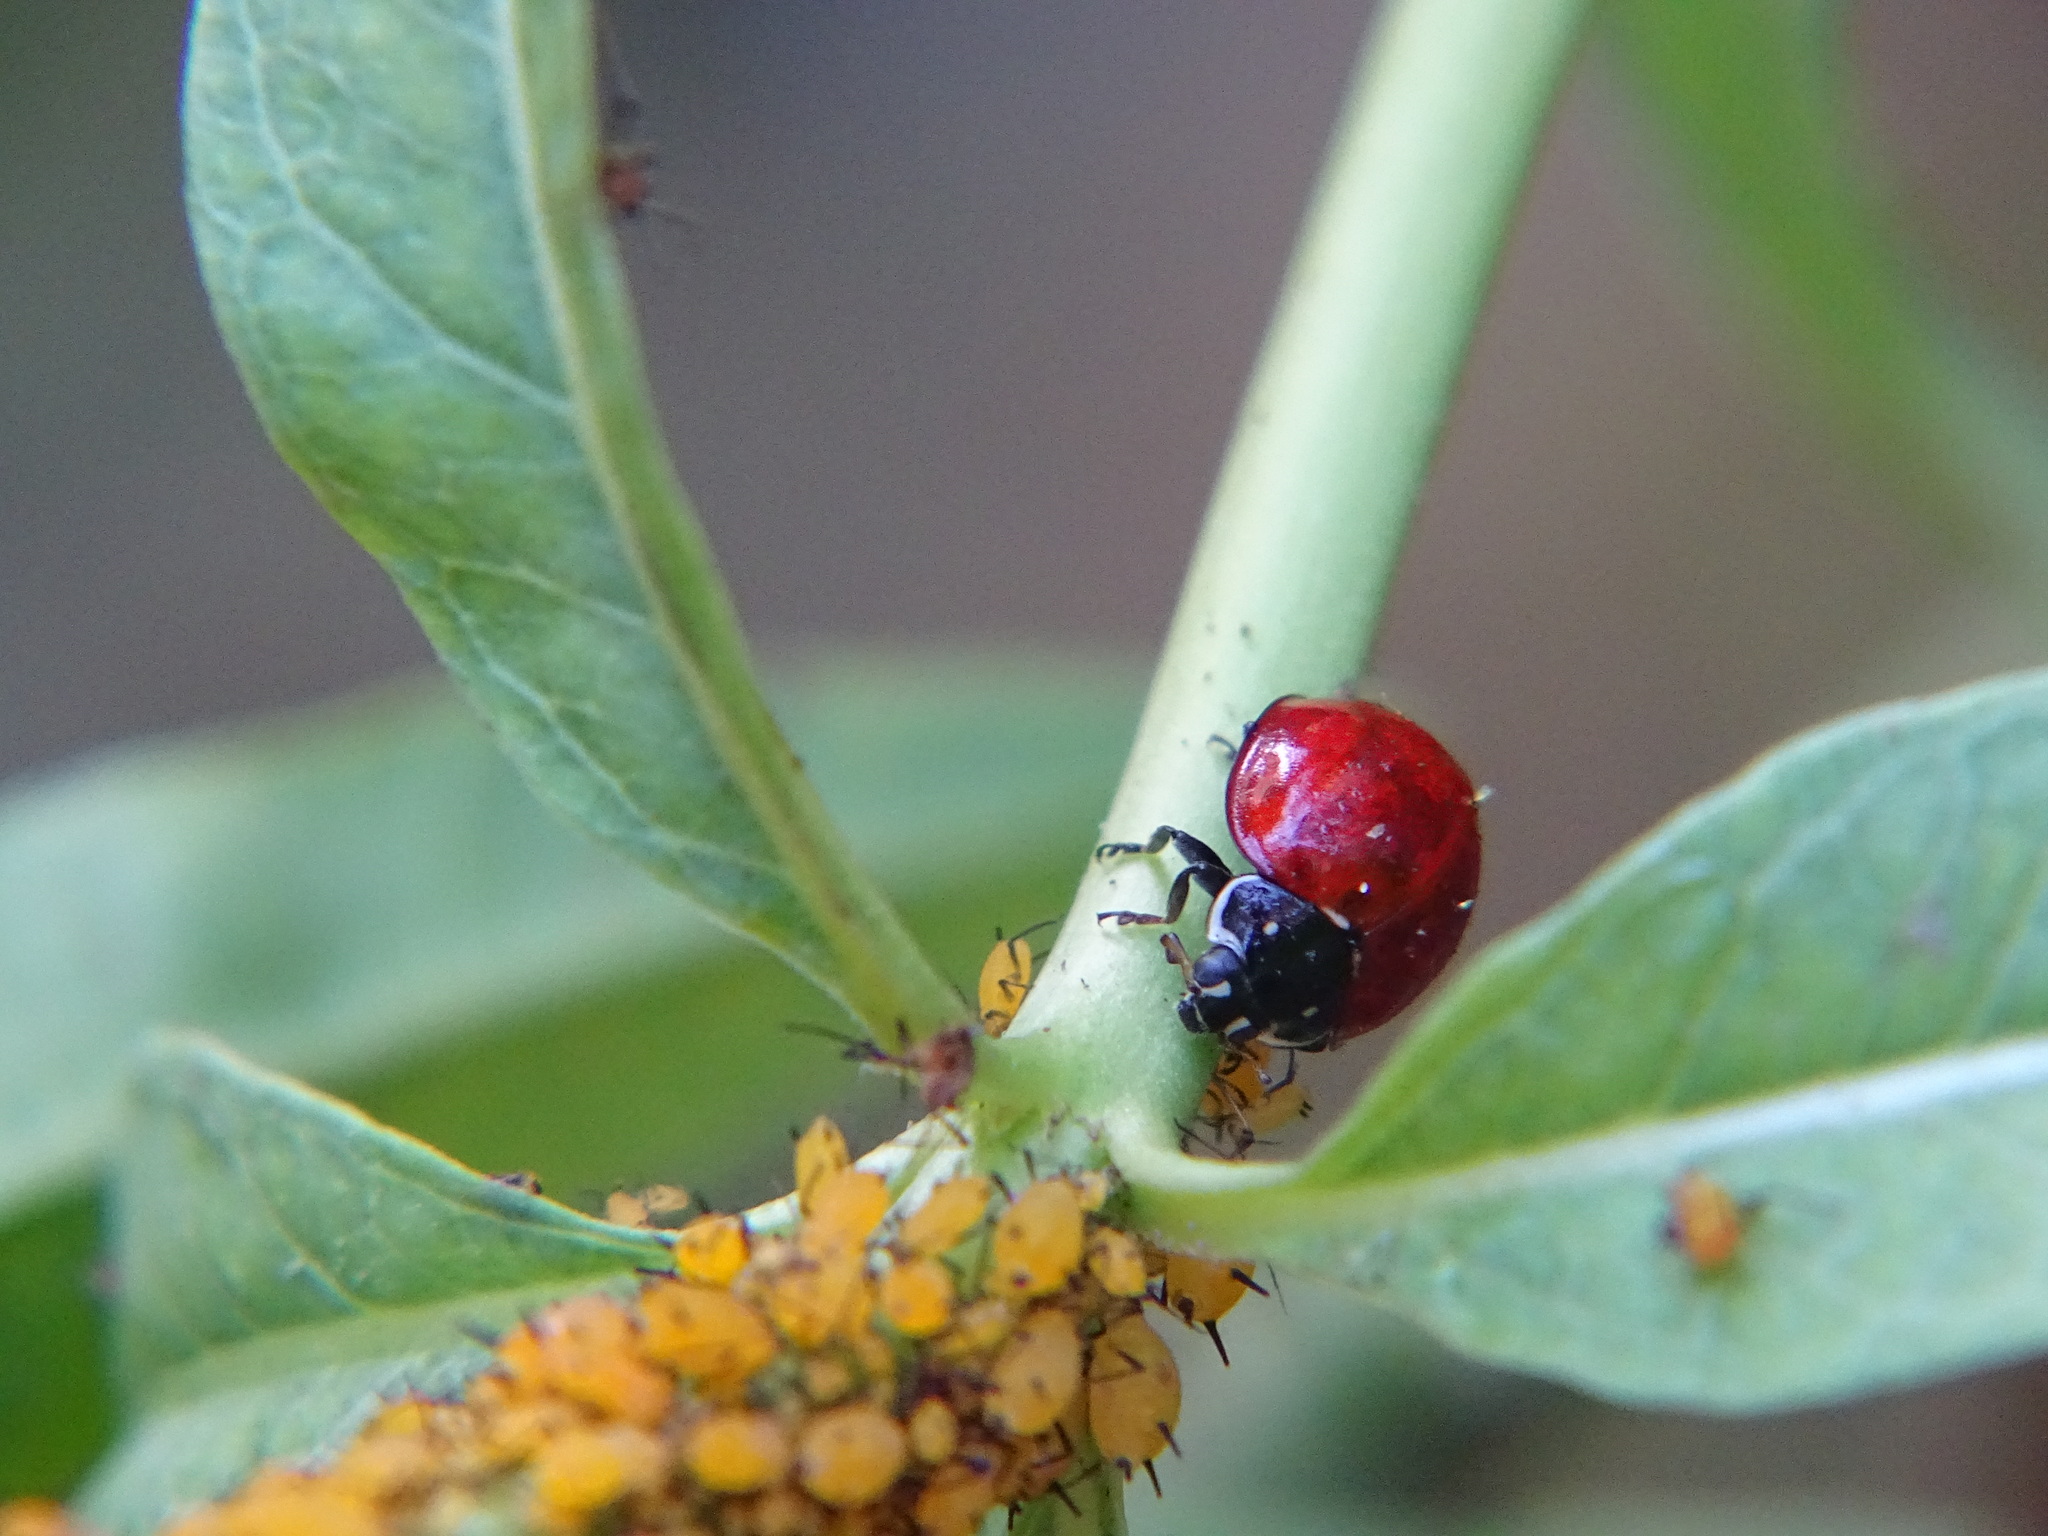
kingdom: Animalia
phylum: Arthropoda
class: Insecta
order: Coleoptera
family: Coccinellidae
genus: Cycloneda
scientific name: Cycloneda sanguinea
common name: Ladybird beetle
